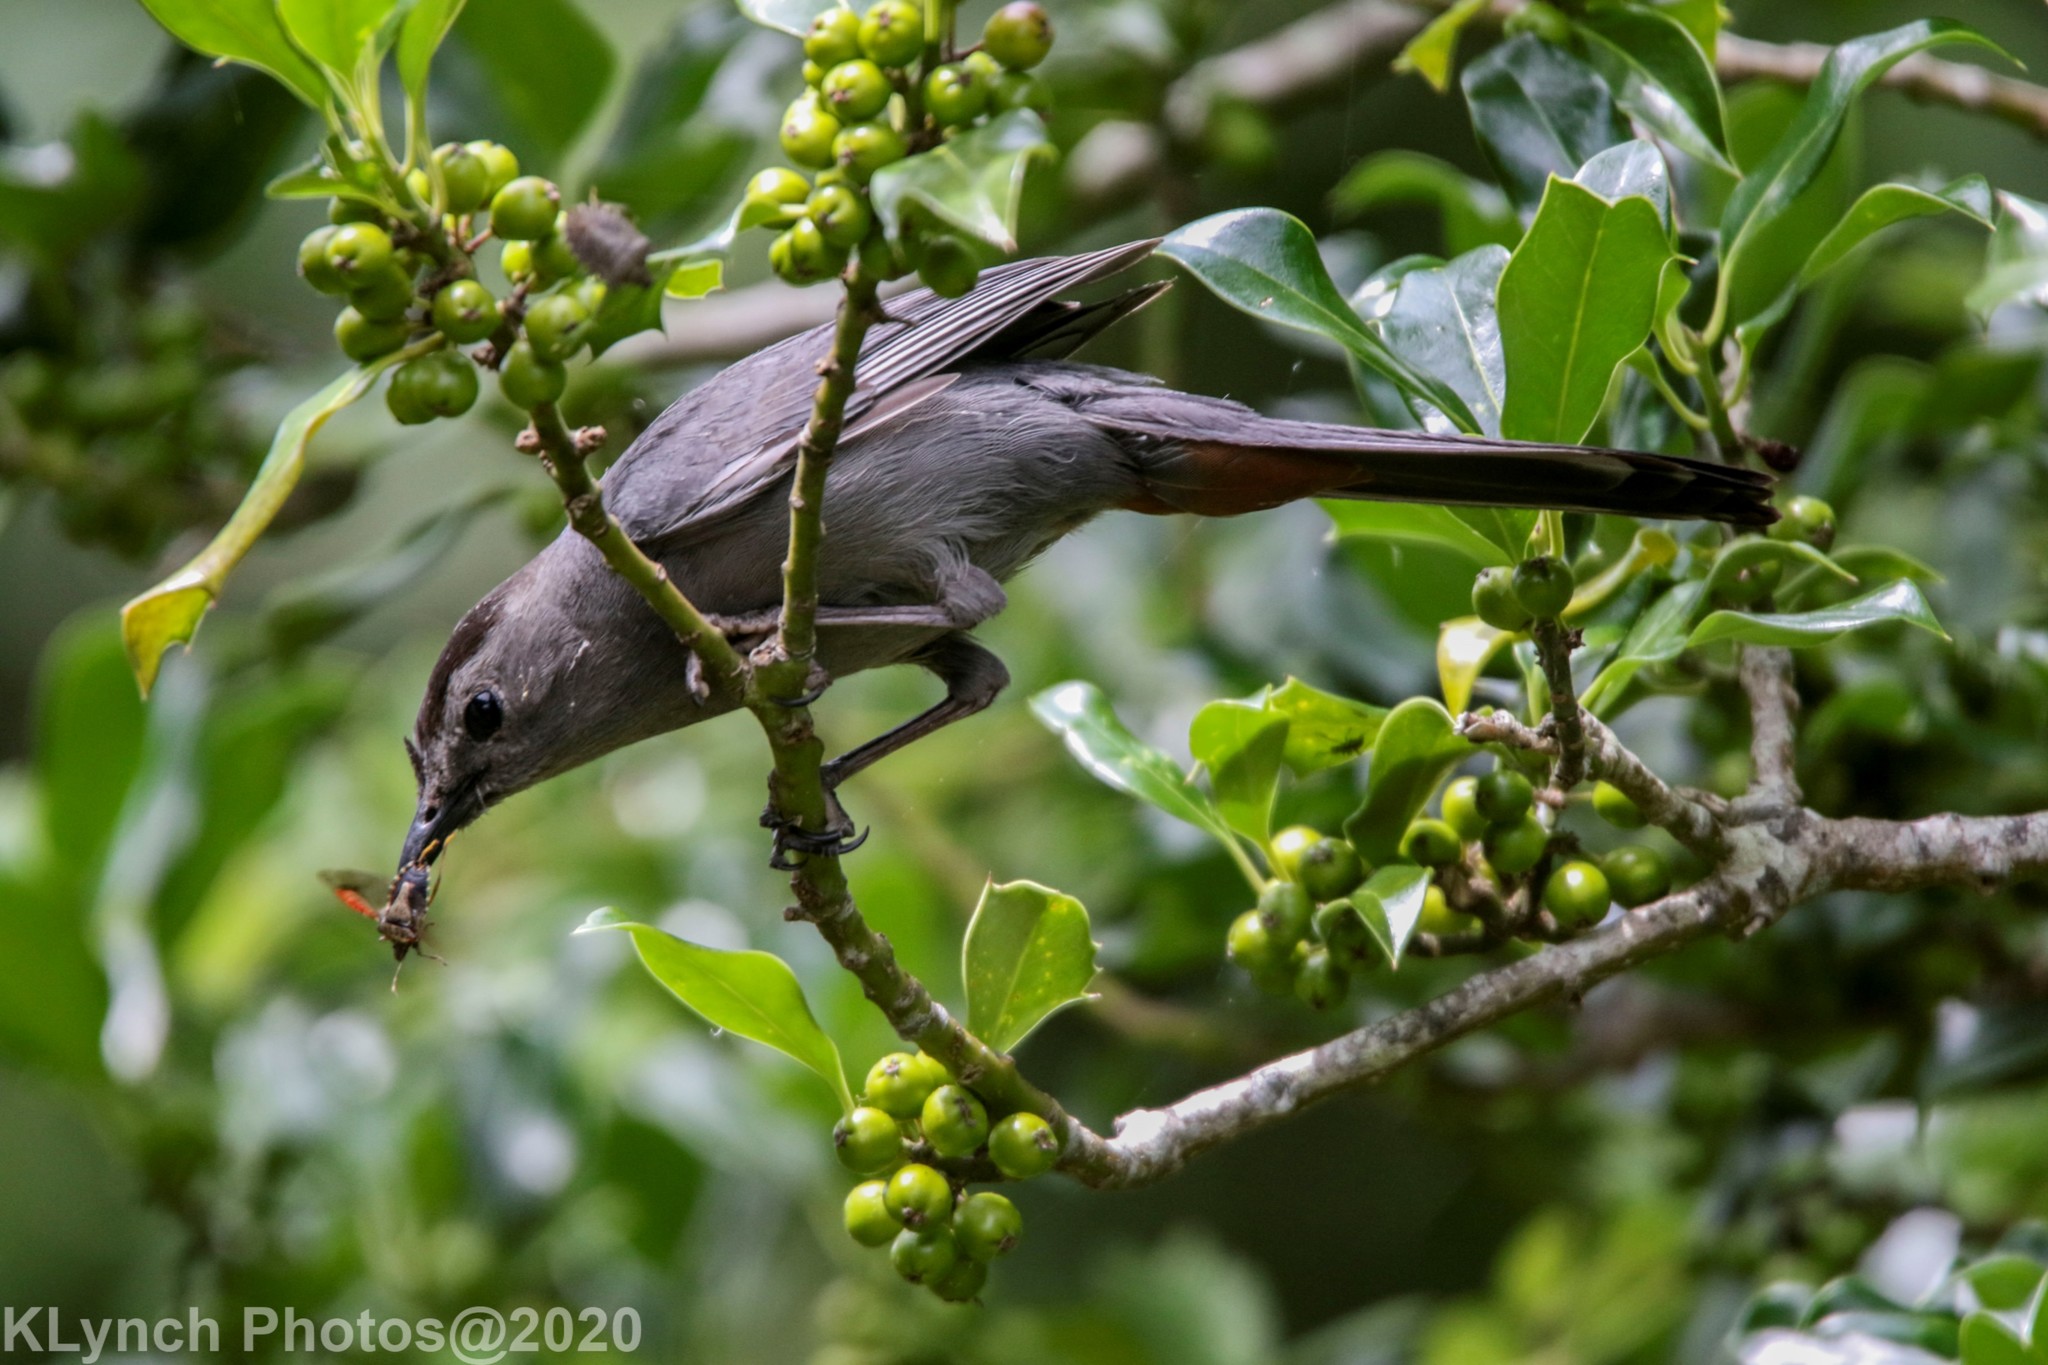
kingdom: Animalia
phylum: Chordata
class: Aves
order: Passeriformes
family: Mimidae
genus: Dumetella
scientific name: Dumetella carolinensis
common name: Gray catbird
